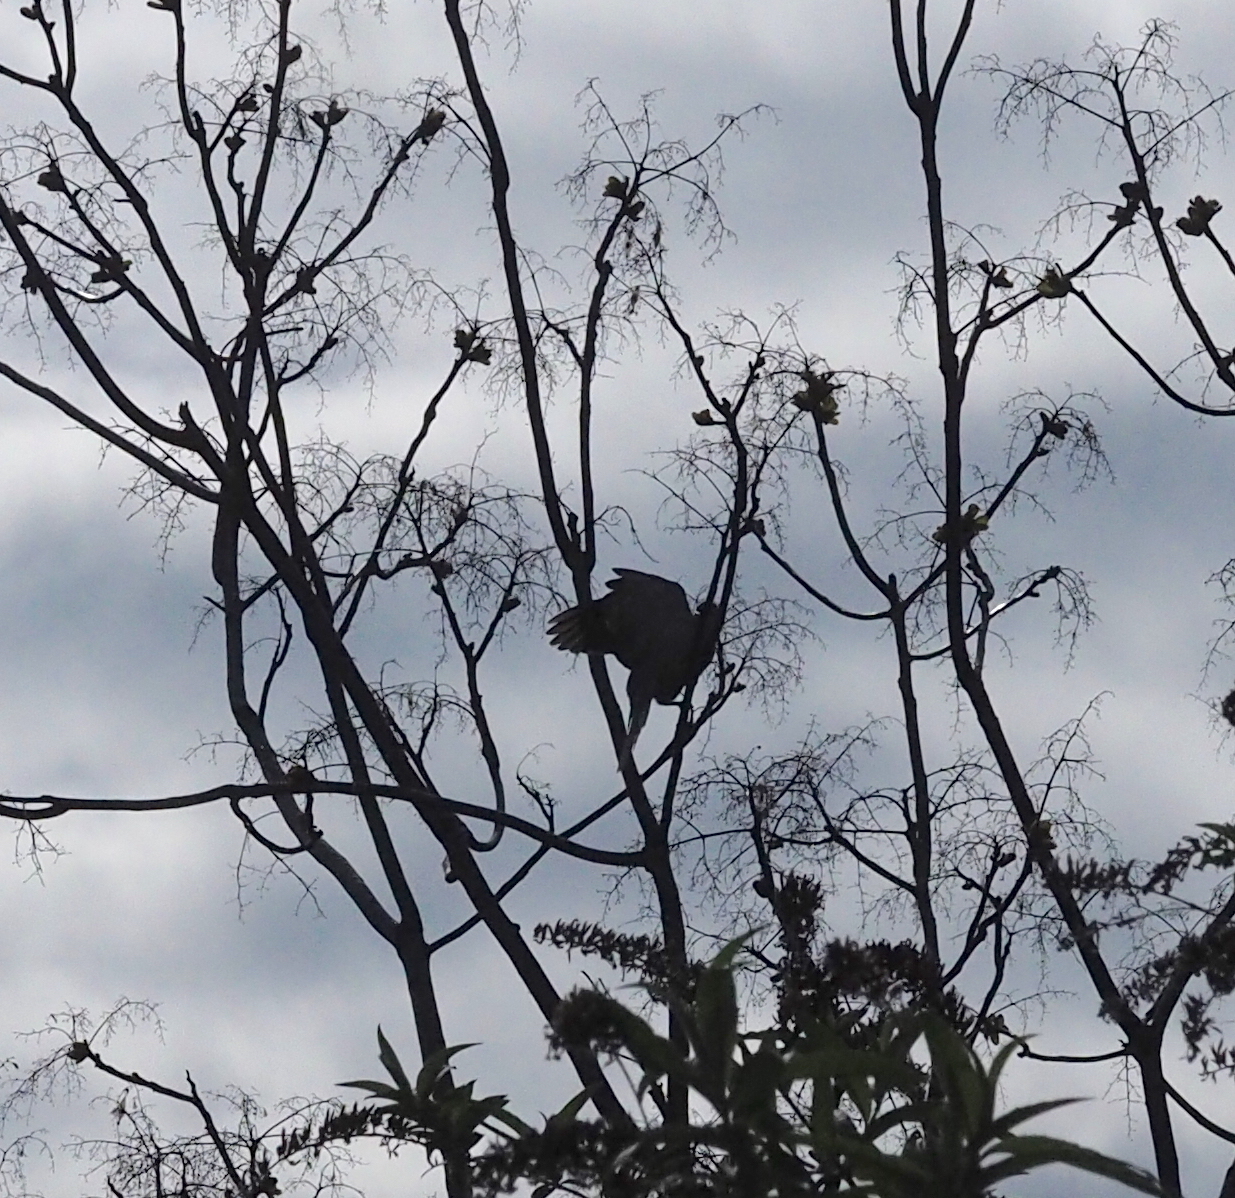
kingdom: Animalia
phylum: Chordata
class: Aves
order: Columbiformes
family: Columbidae
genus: Streptopelia
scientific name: Streptopelia decaocto
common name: Eurasian collared dove
